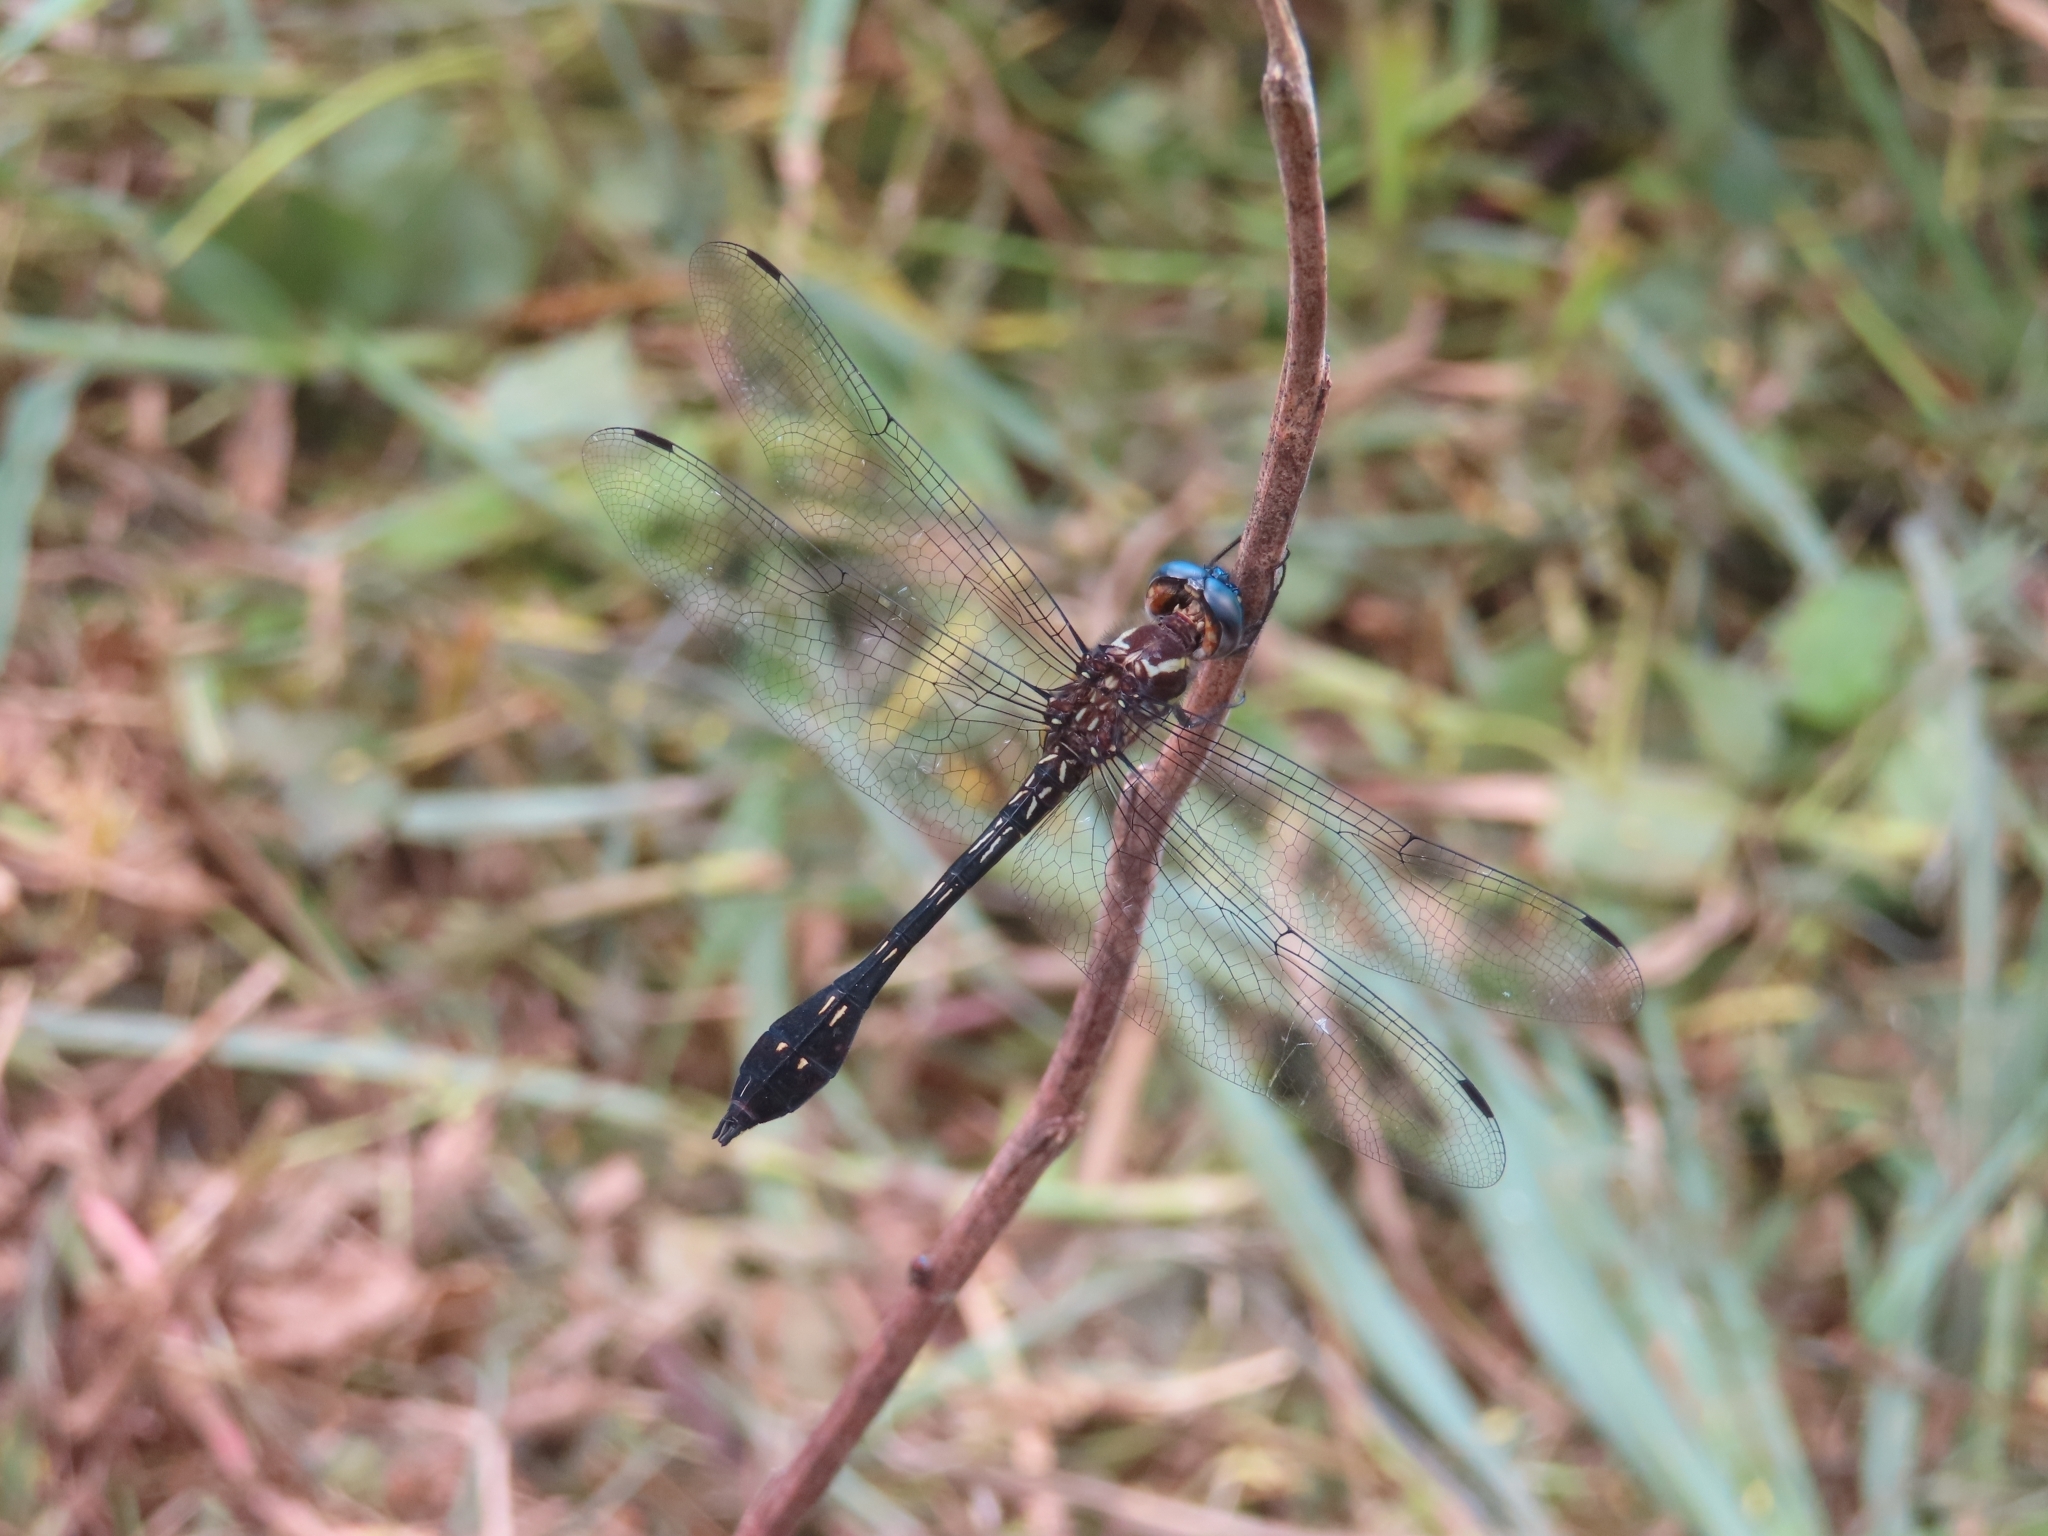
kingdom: Animalia
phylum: Arthropoda
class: Insecta
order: Odonata
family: Libellulidae
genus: Scapanea
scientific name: Scapanea frontalis
